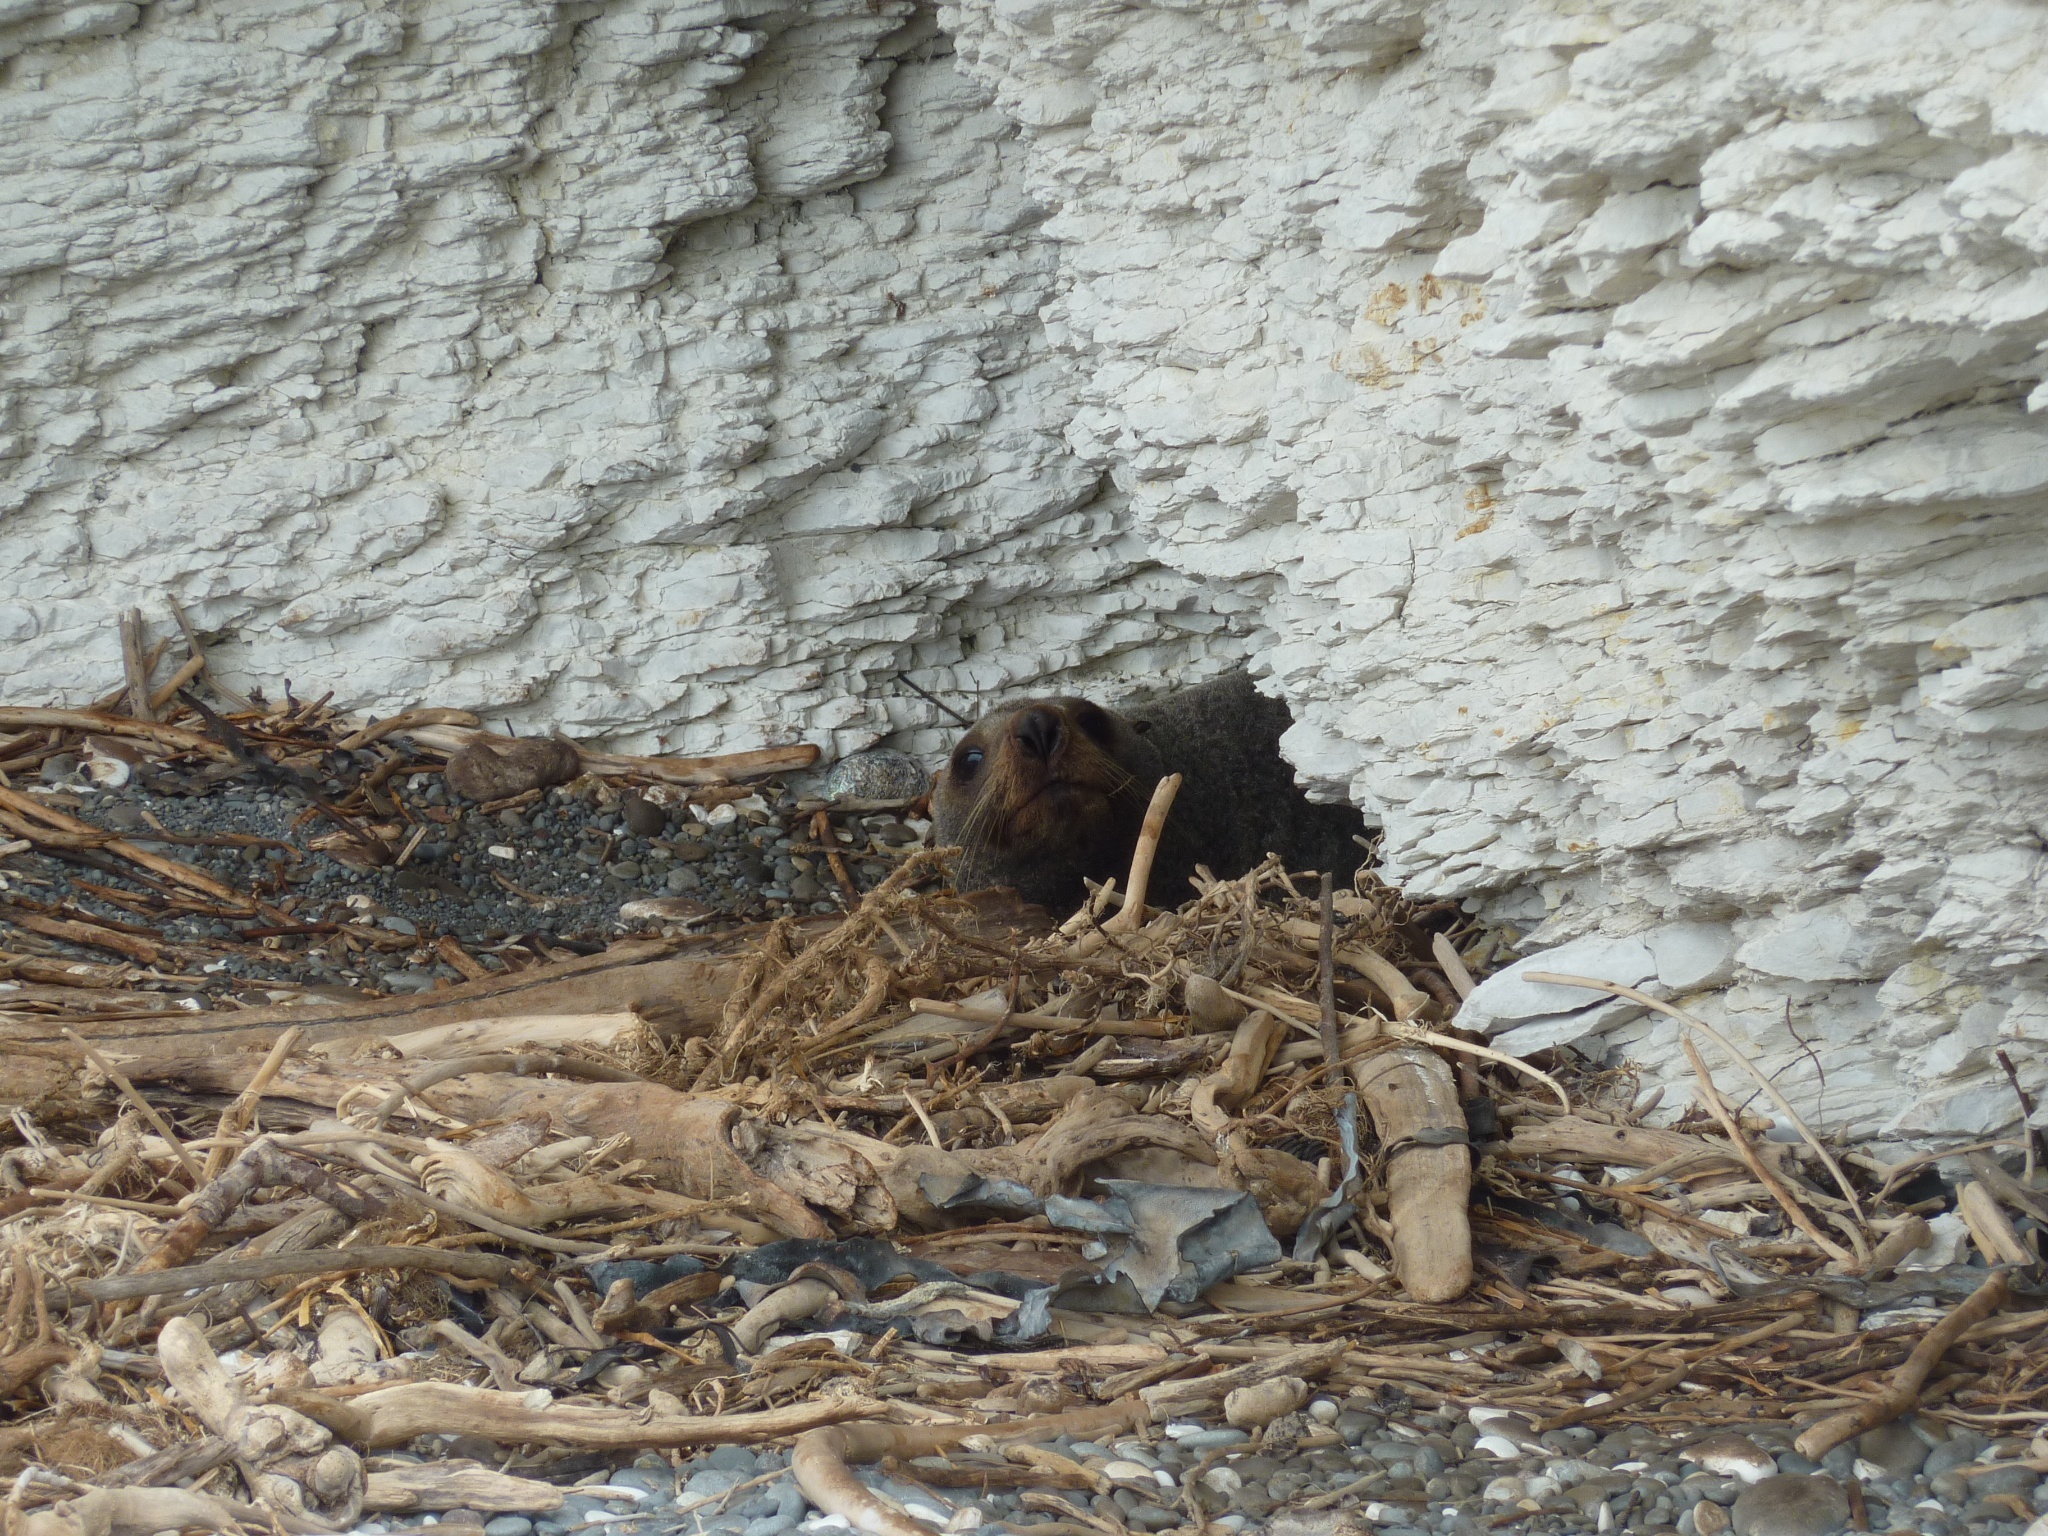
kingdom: Animalia
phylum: Chordata
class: Mammalia
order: Carnivora
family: Otariidae
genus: Arctocephalus
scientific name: Arctocephalus forsteri
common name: New zealand fur seal
